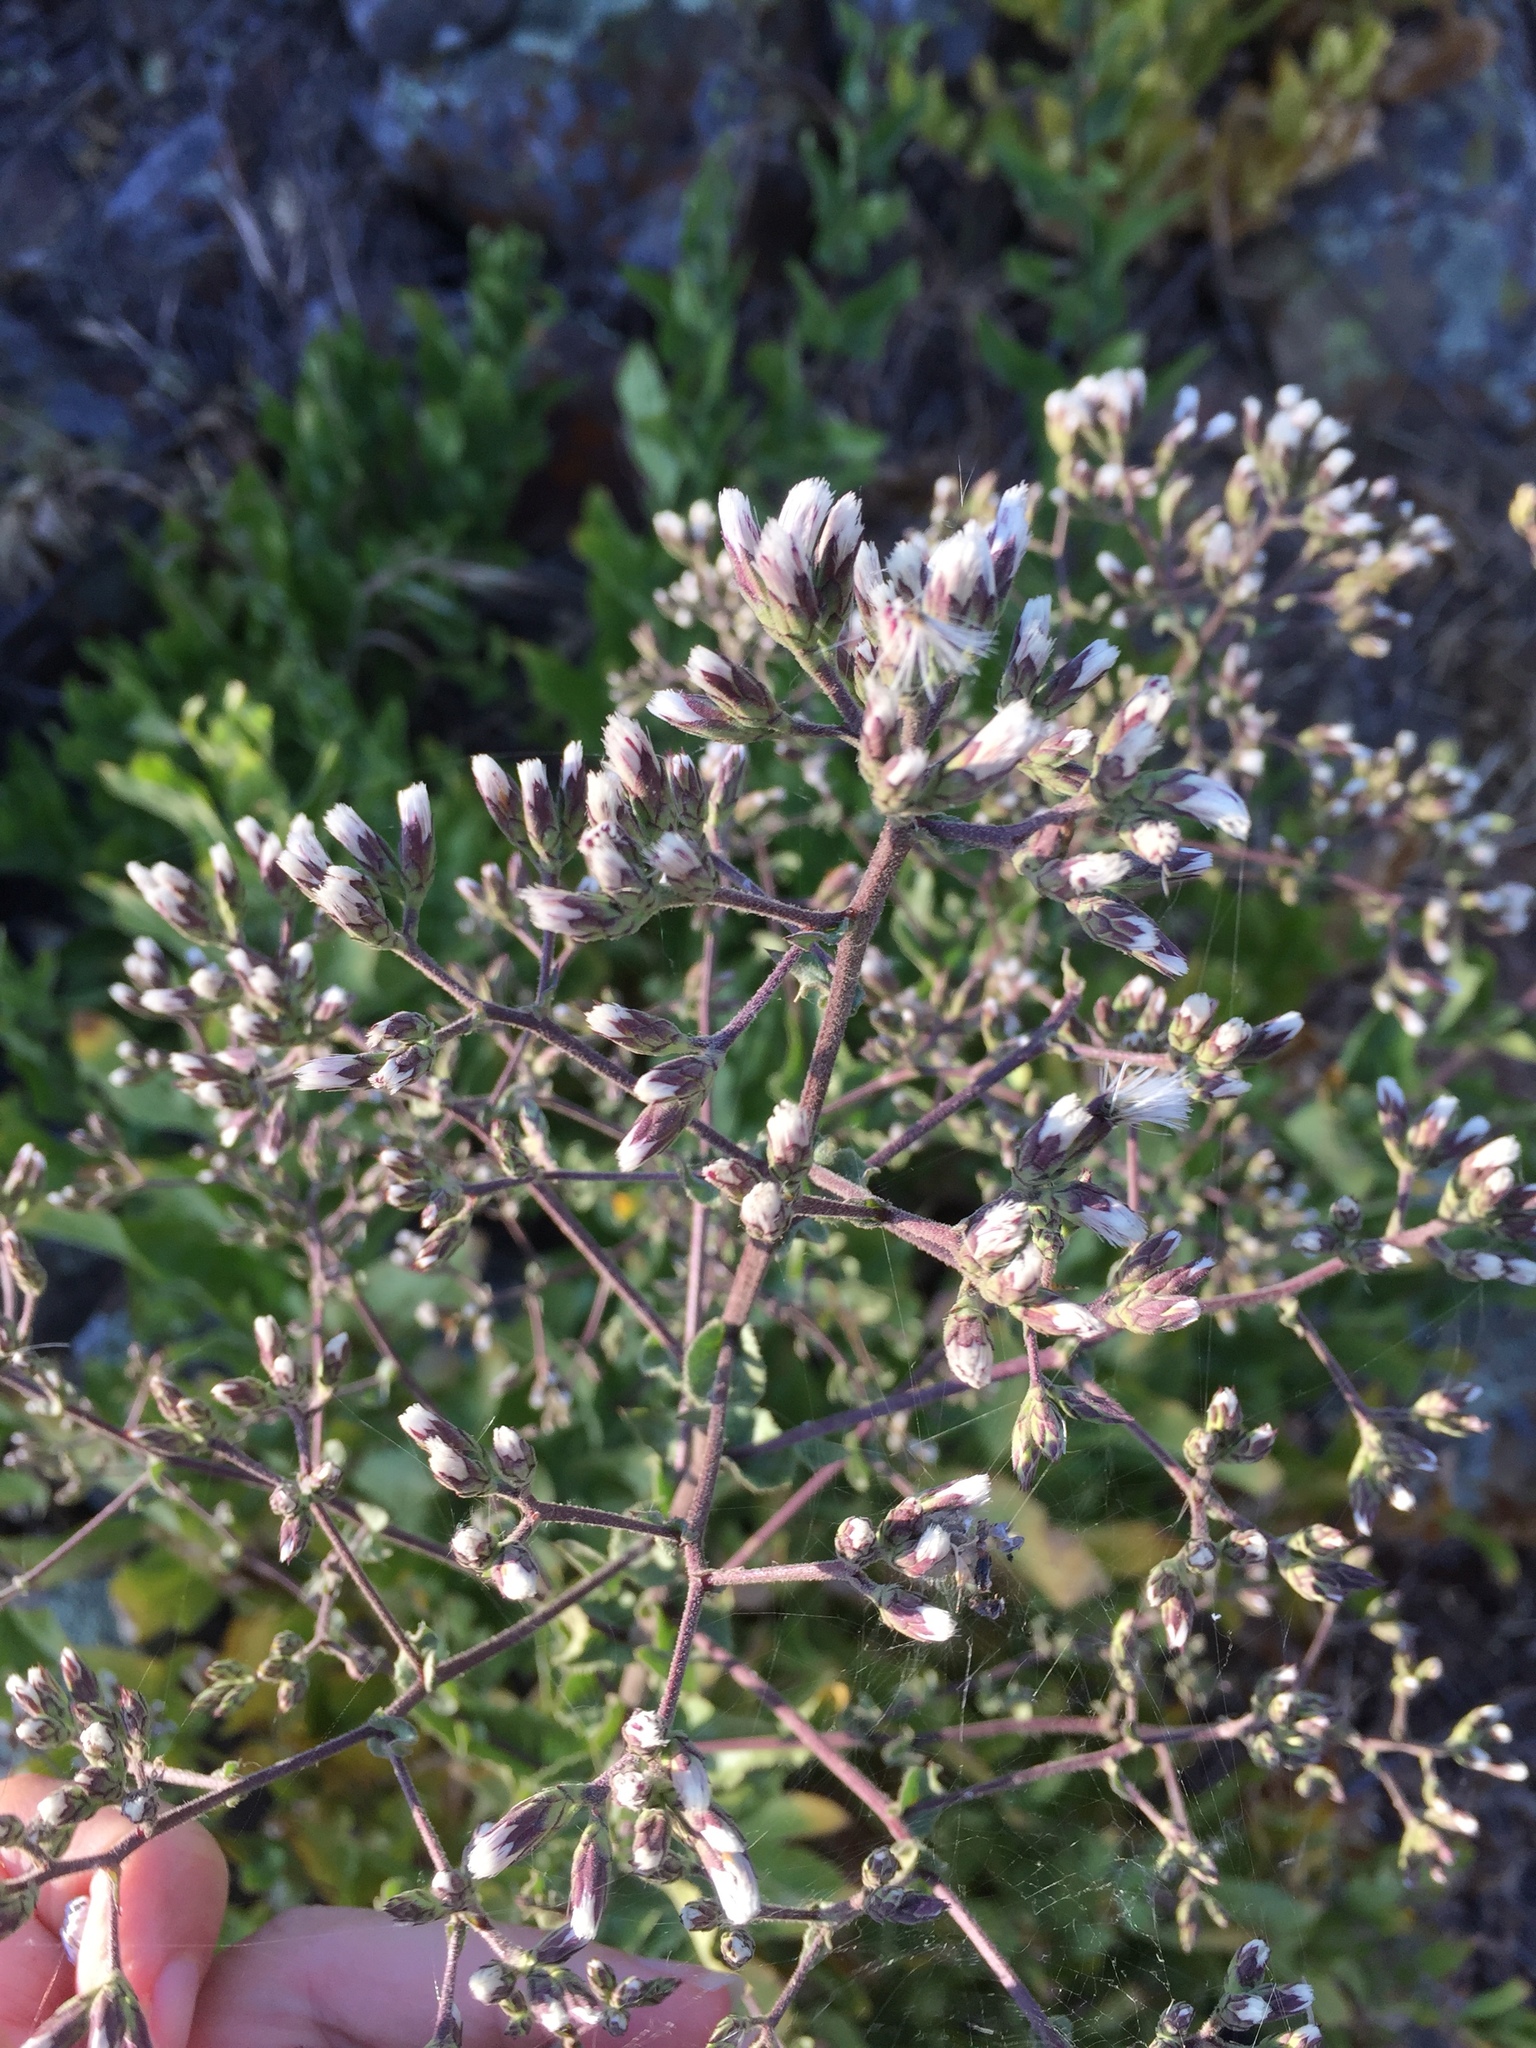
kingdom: Plantae
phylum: Tracheophyta
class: Magnoliopsida
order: Asterales
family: Asteraceae
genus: Acourtia
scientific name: Acourtia microcephala
